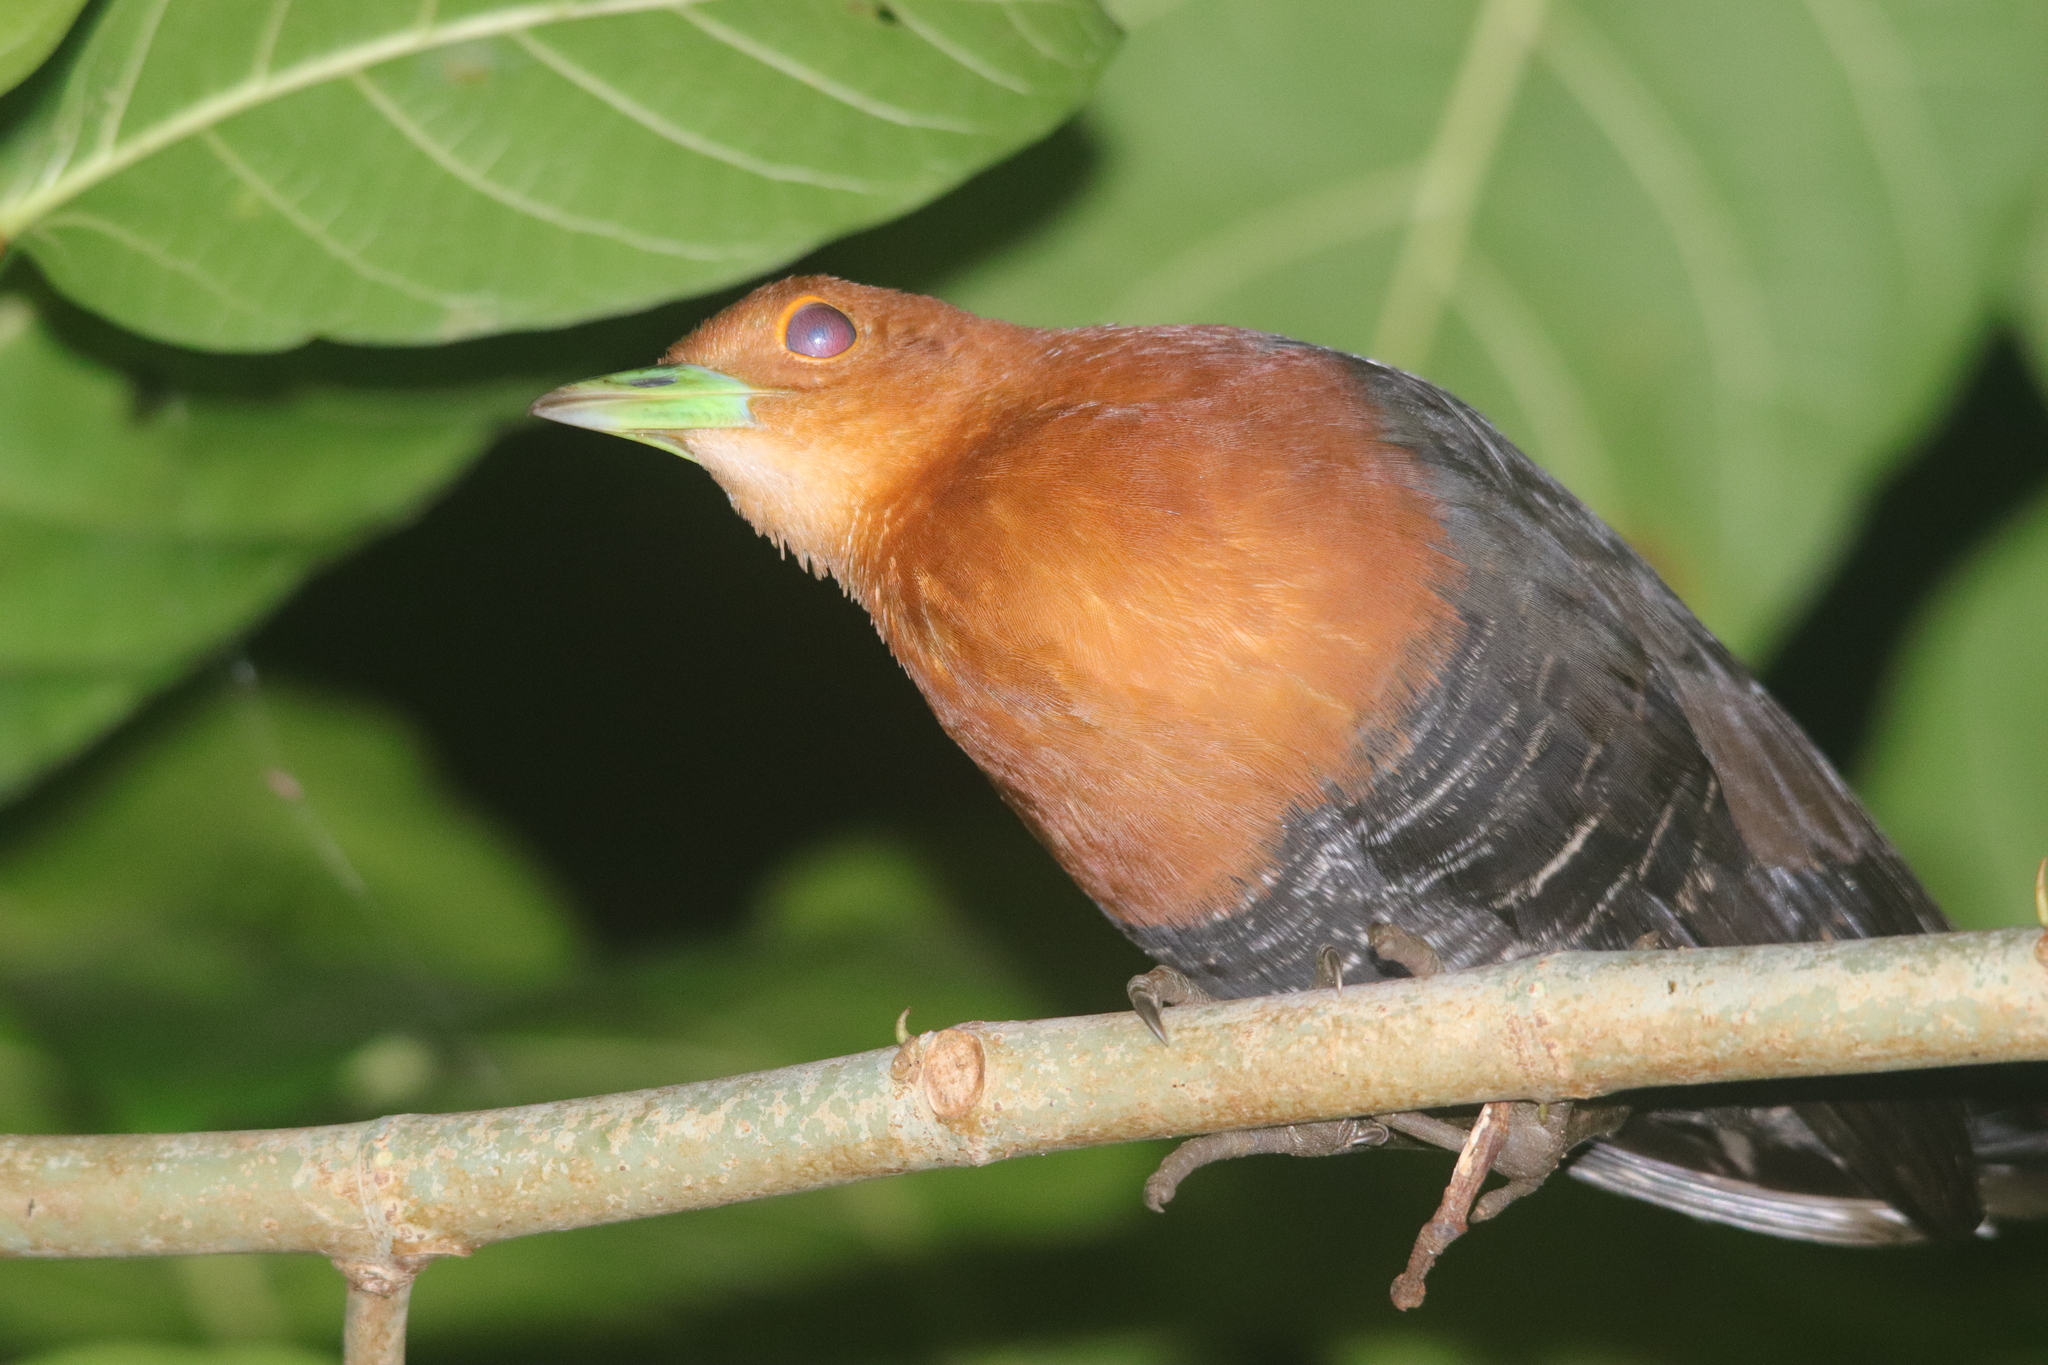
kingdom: Animalia
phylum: Chordata
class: Aves
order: Gruiformes
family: Rallidae
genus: Rallina
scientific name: Rallina eurizonoides
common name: Slaty-legged crake
